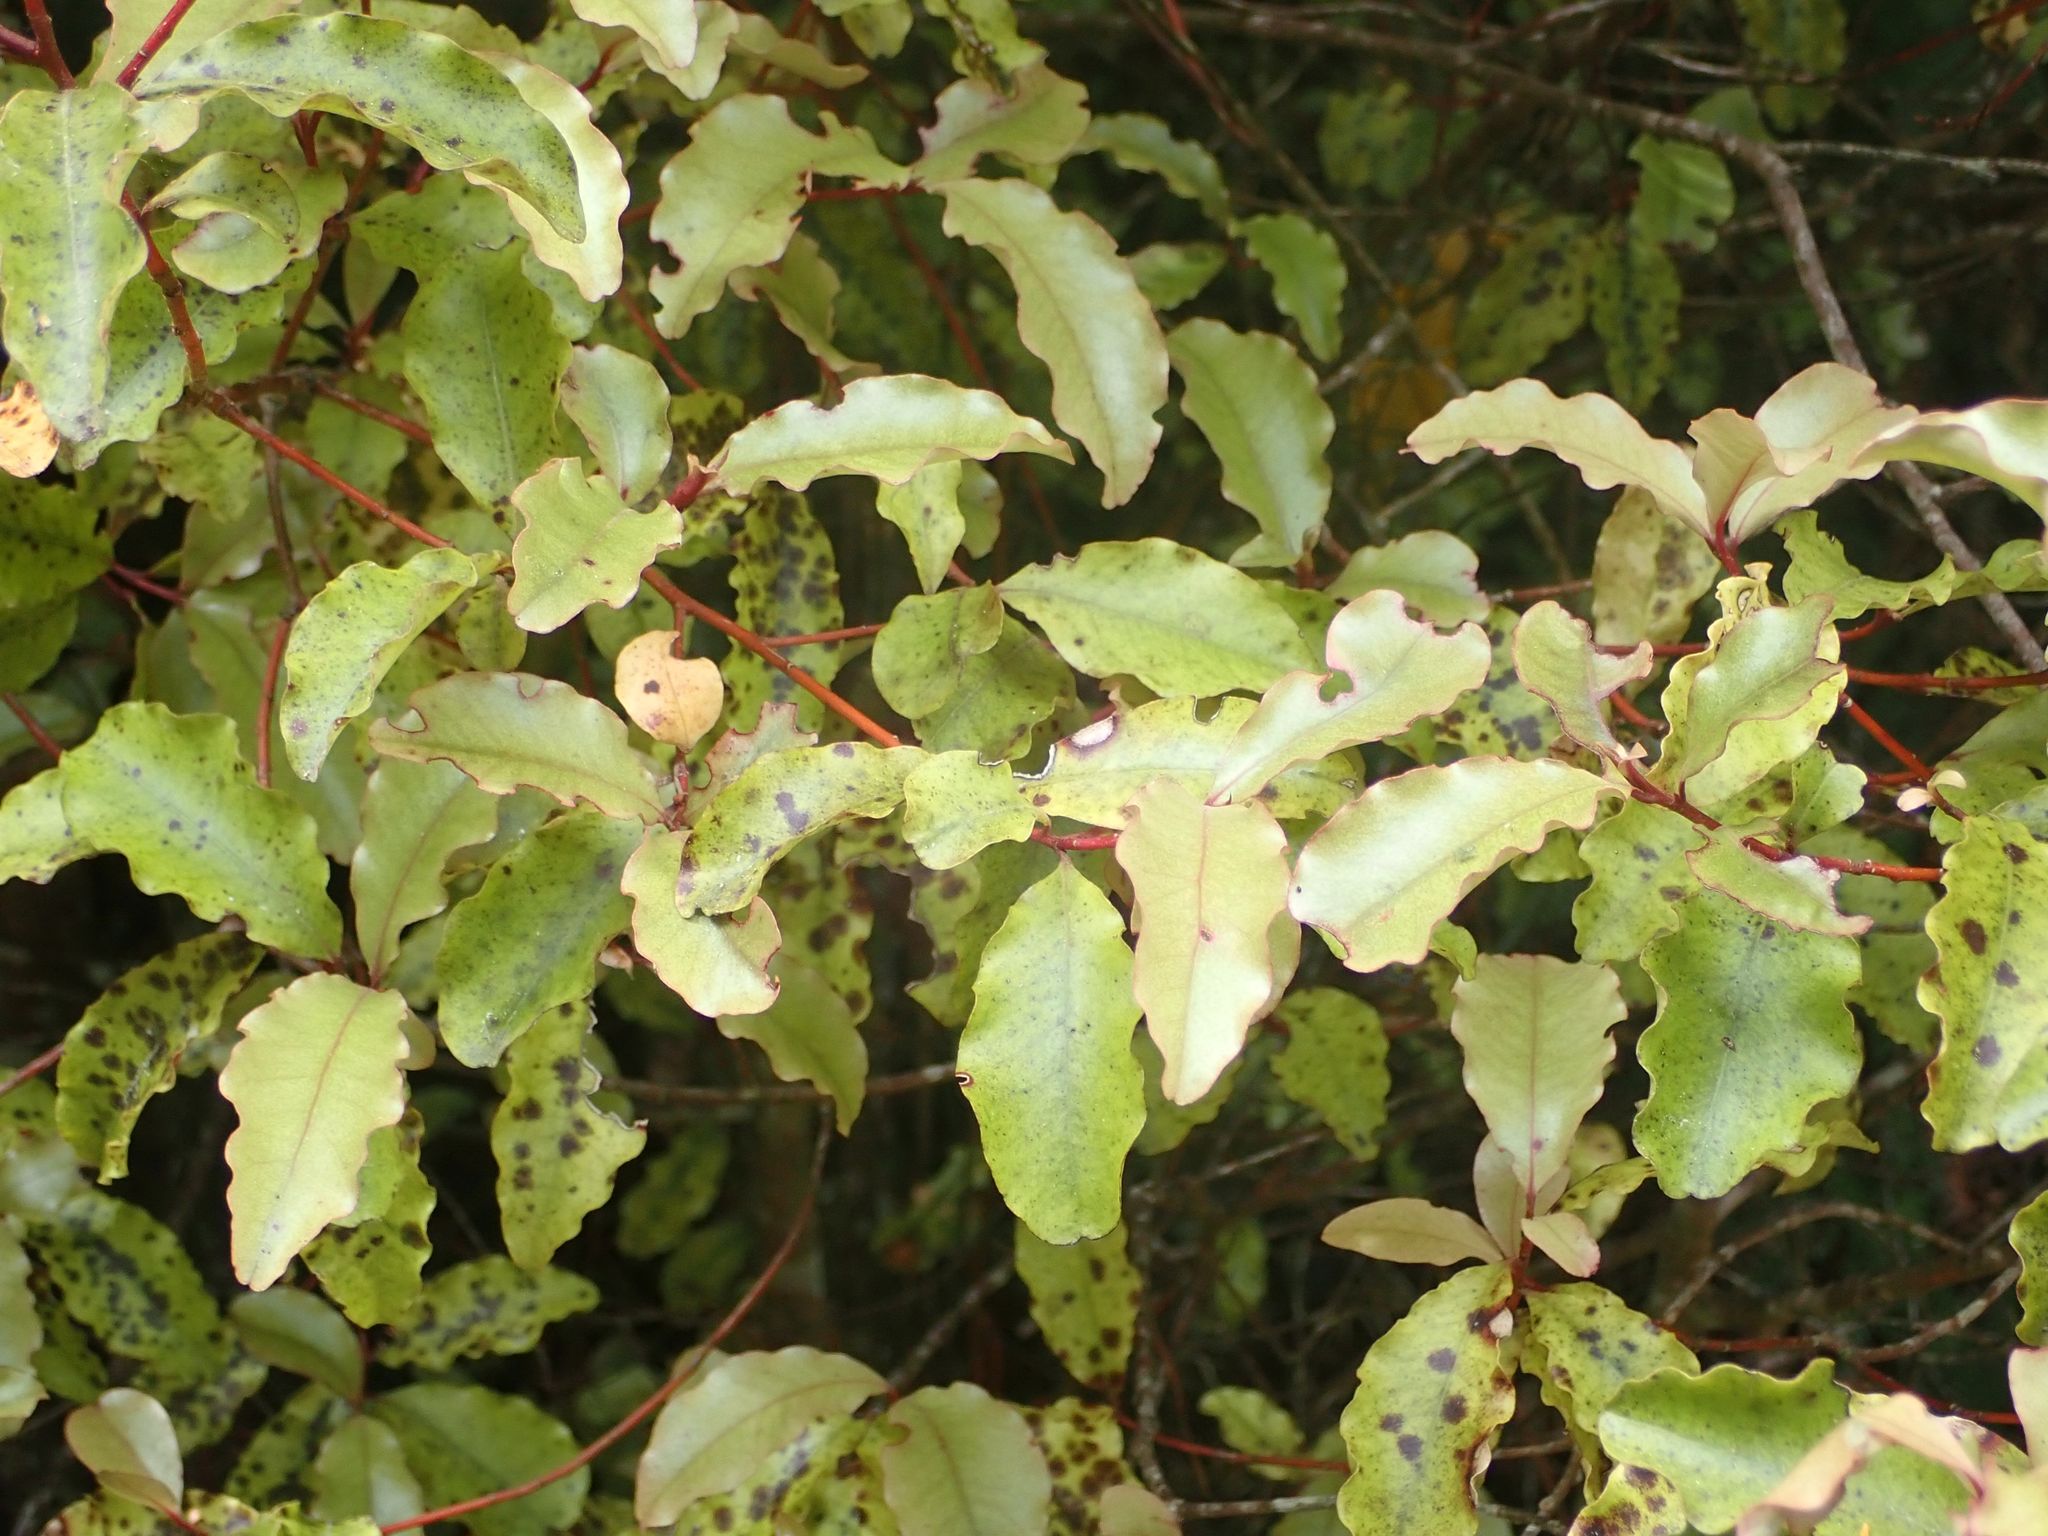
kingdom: Plantae
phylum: Tracheophyta
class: Magnoliopsida
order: Ericales
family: Primulaceae
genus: Myrsine
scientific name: Myrsine australis
